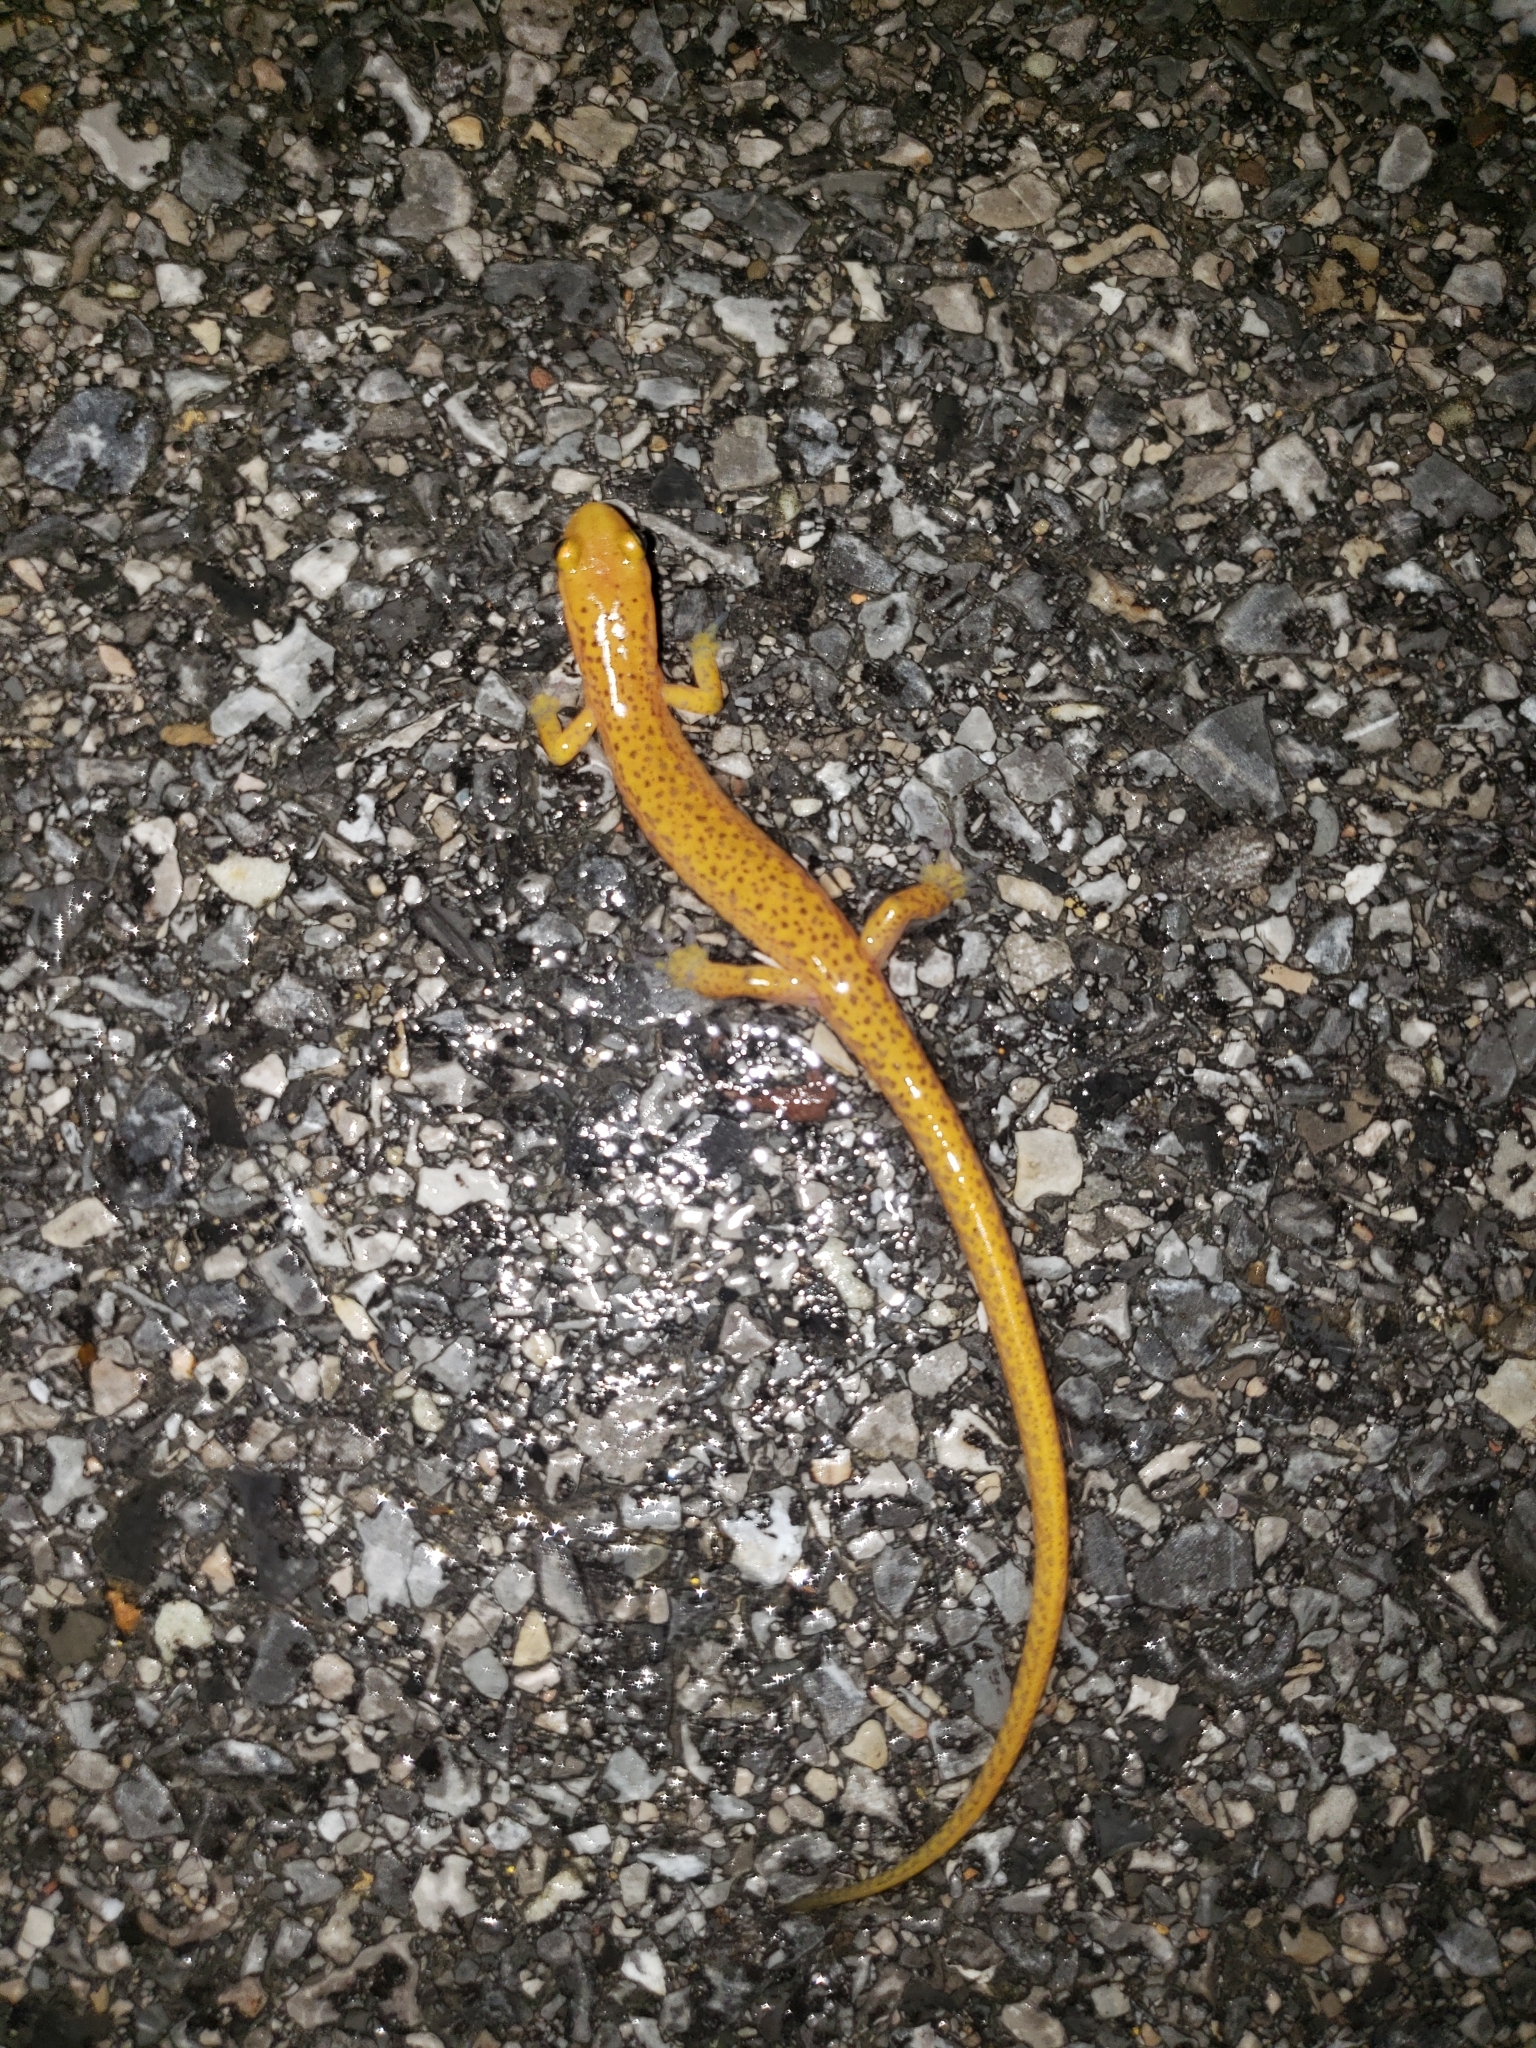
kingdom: Animalia
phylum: Chordata
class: Amphibia
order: Caudata
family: Plethodontidae
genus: Eurycea
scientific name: Eurycea longicauda
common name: Long-tailed salamander
